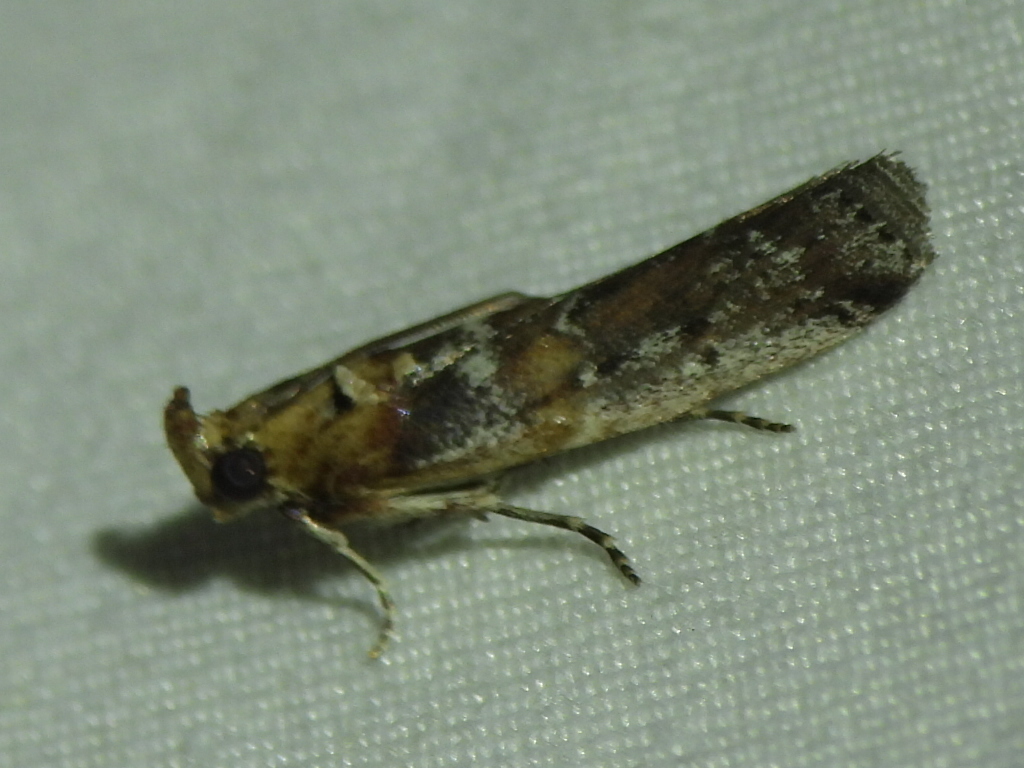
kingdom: Animalia
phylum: Arthropoda
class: Insecta
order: Lepidoptera
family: Pyralidae
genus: Adelphia
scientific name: Adelphia petrella
